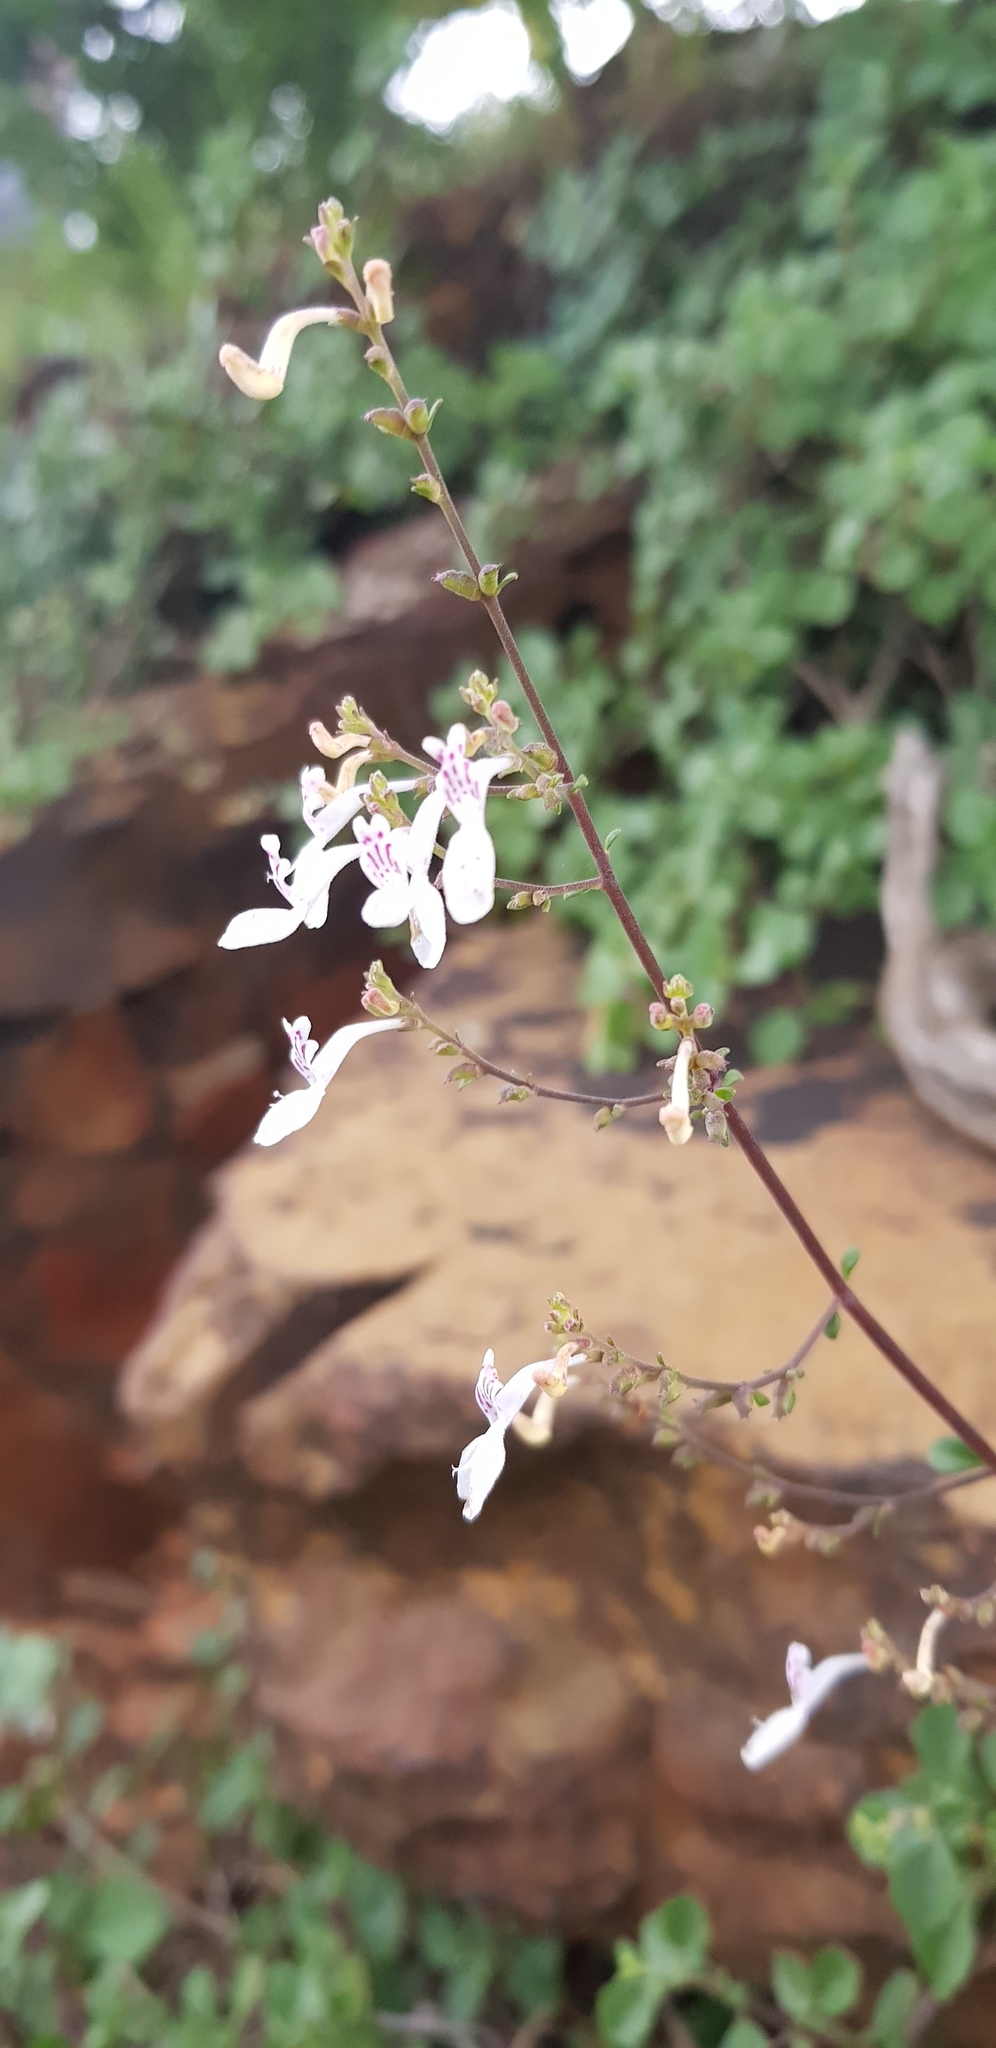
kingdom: Plantae
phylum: Tracheophyta
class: Magnoliopsida
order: Lamiales
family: Lamiaceae
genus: Aeollanthus
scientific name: Aeollanthus parvifolius
